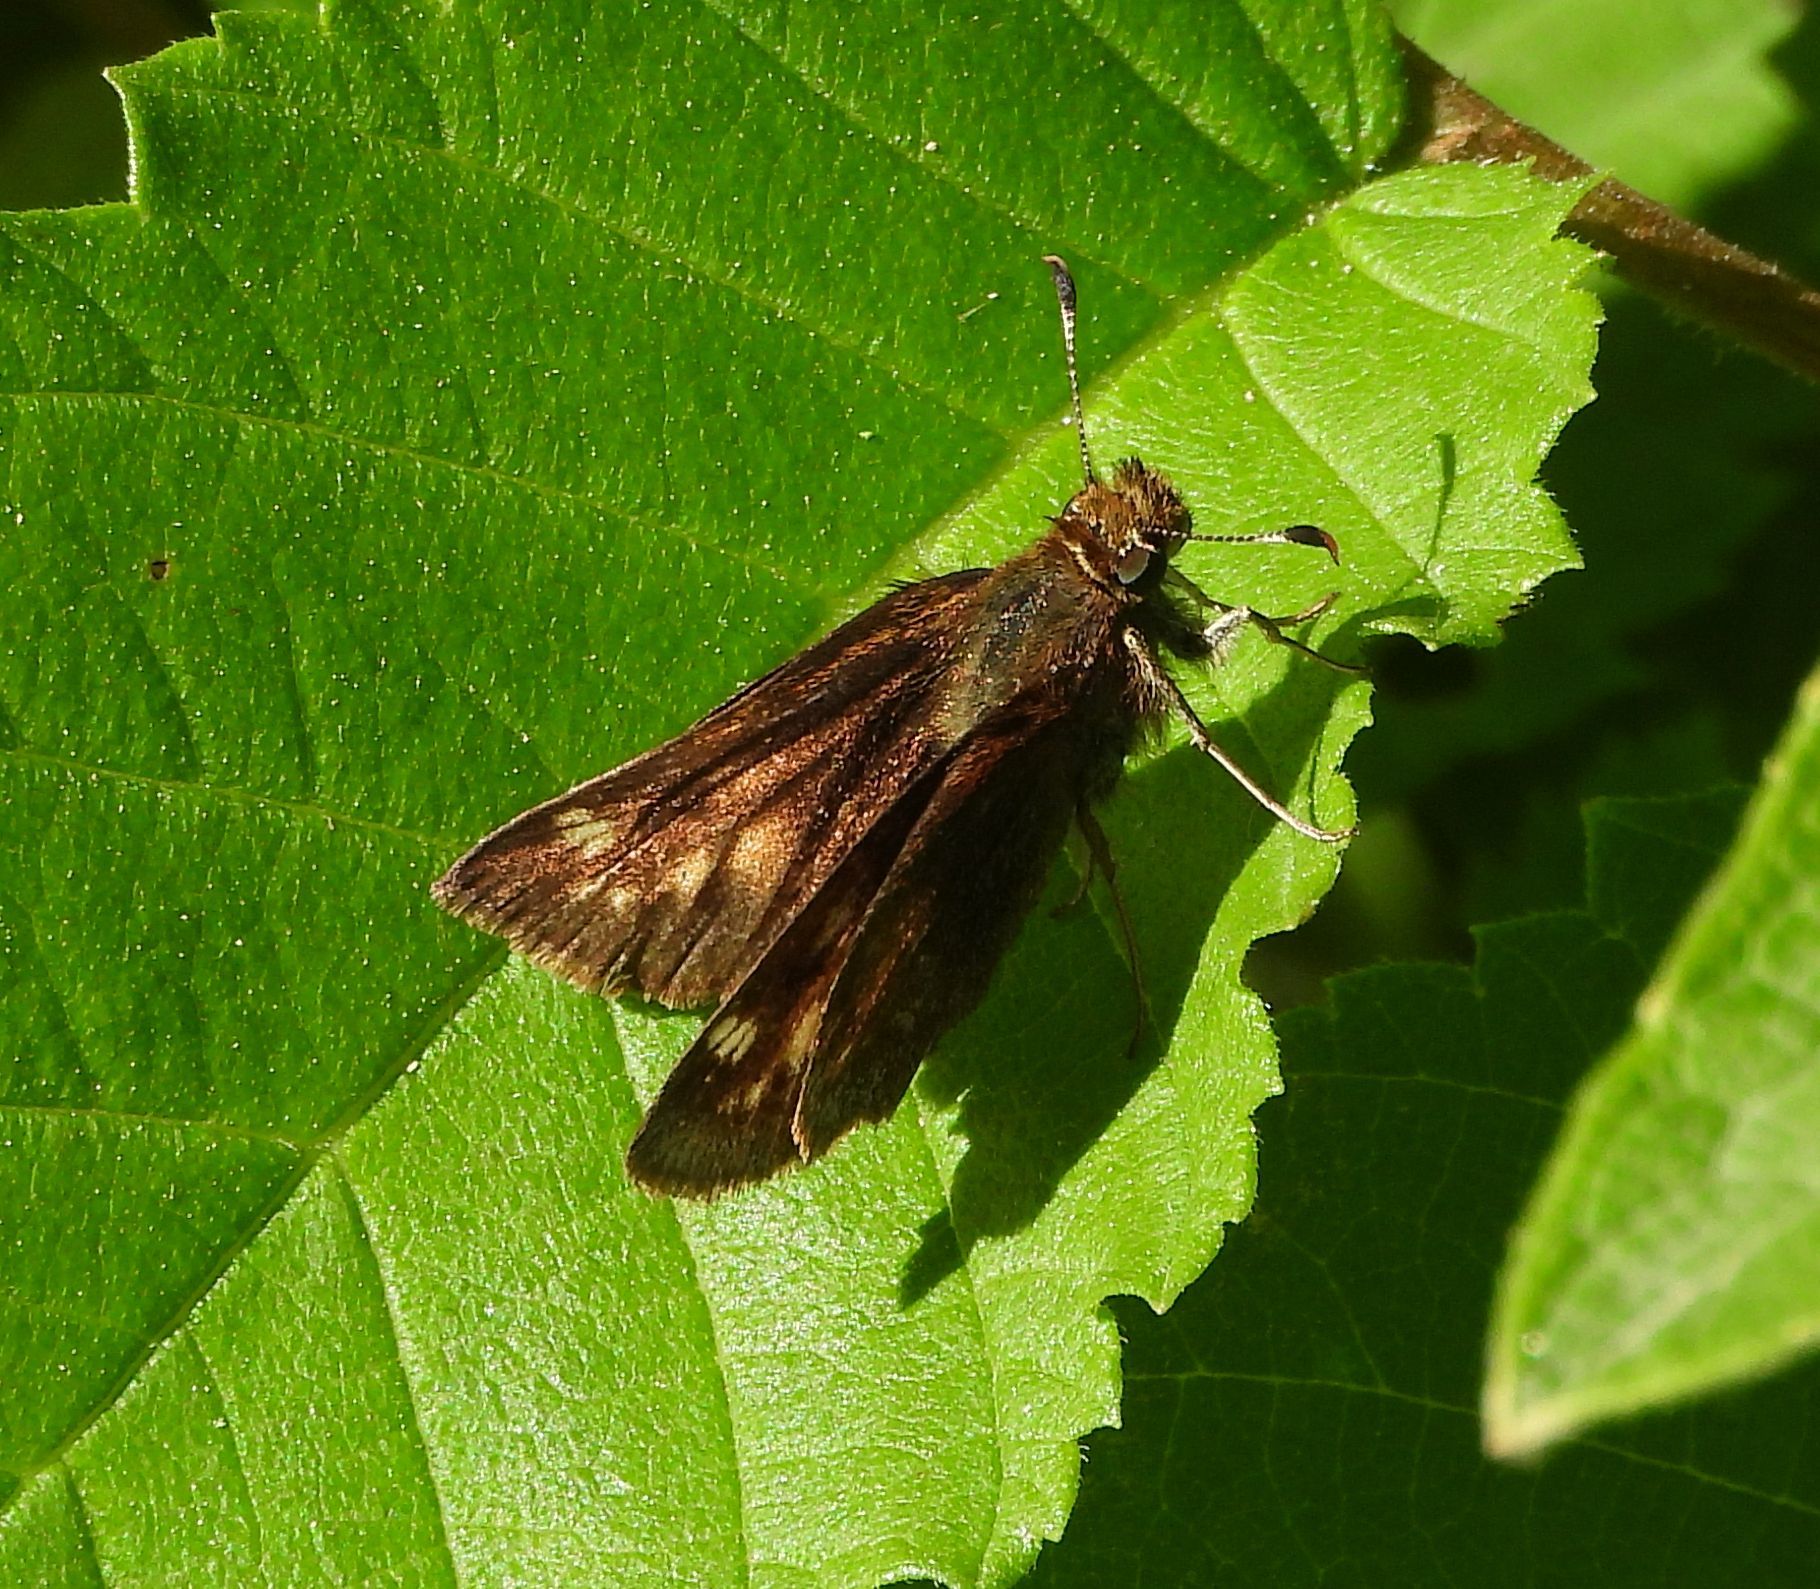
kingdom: Animalia
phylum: Arthropoda
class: Insecta
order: Lepidoptera
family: Hesperiidae
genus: Lon
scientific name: Lon hobomok
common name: Hobomok skipper
